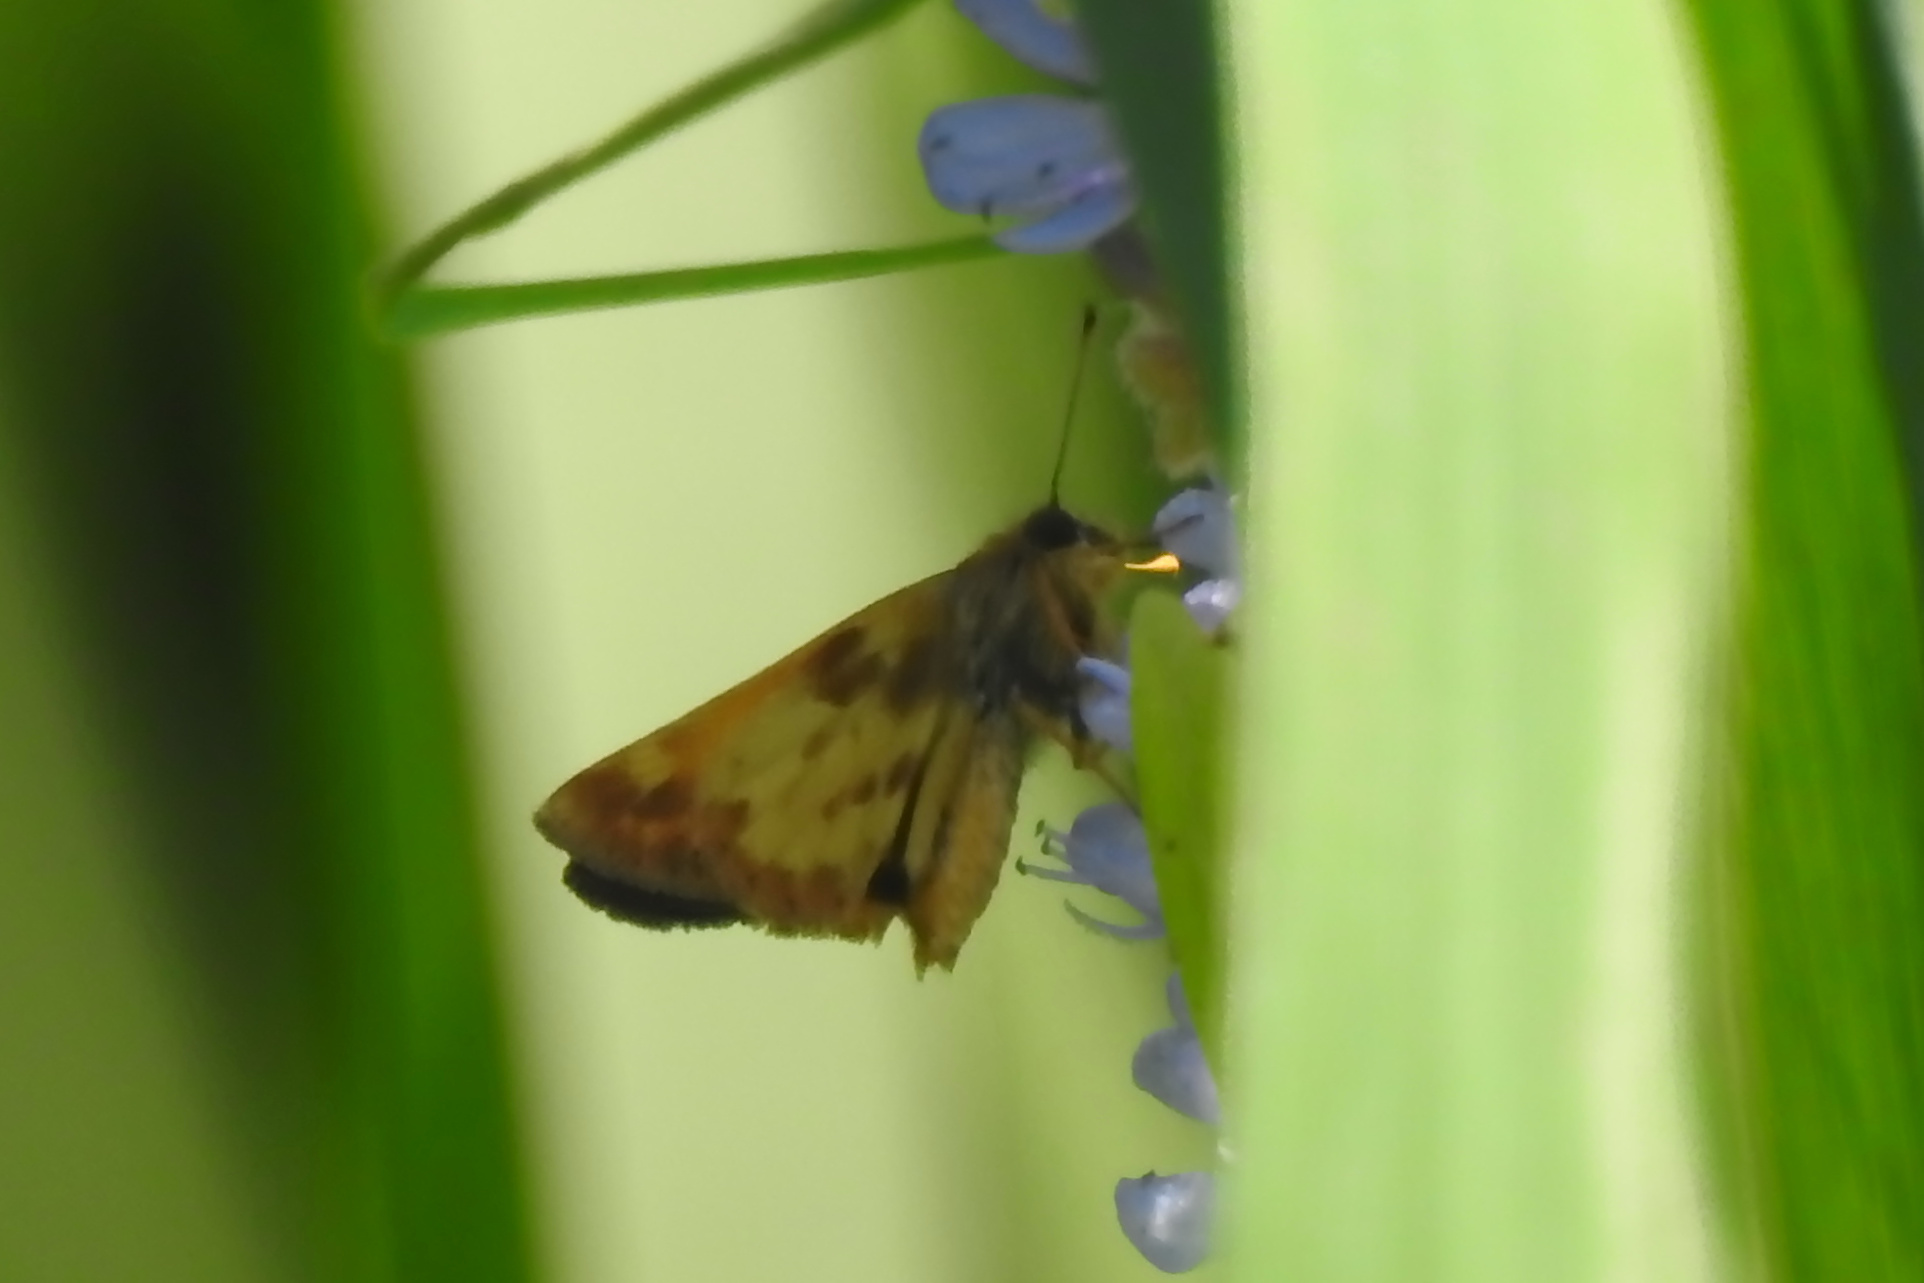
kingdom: Animalia
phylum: Arthropoda
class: Insecta
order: Lepidoptera
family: Hesperiidae
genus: Lon
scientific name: Lon zabulon
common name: Zabulon skipper
